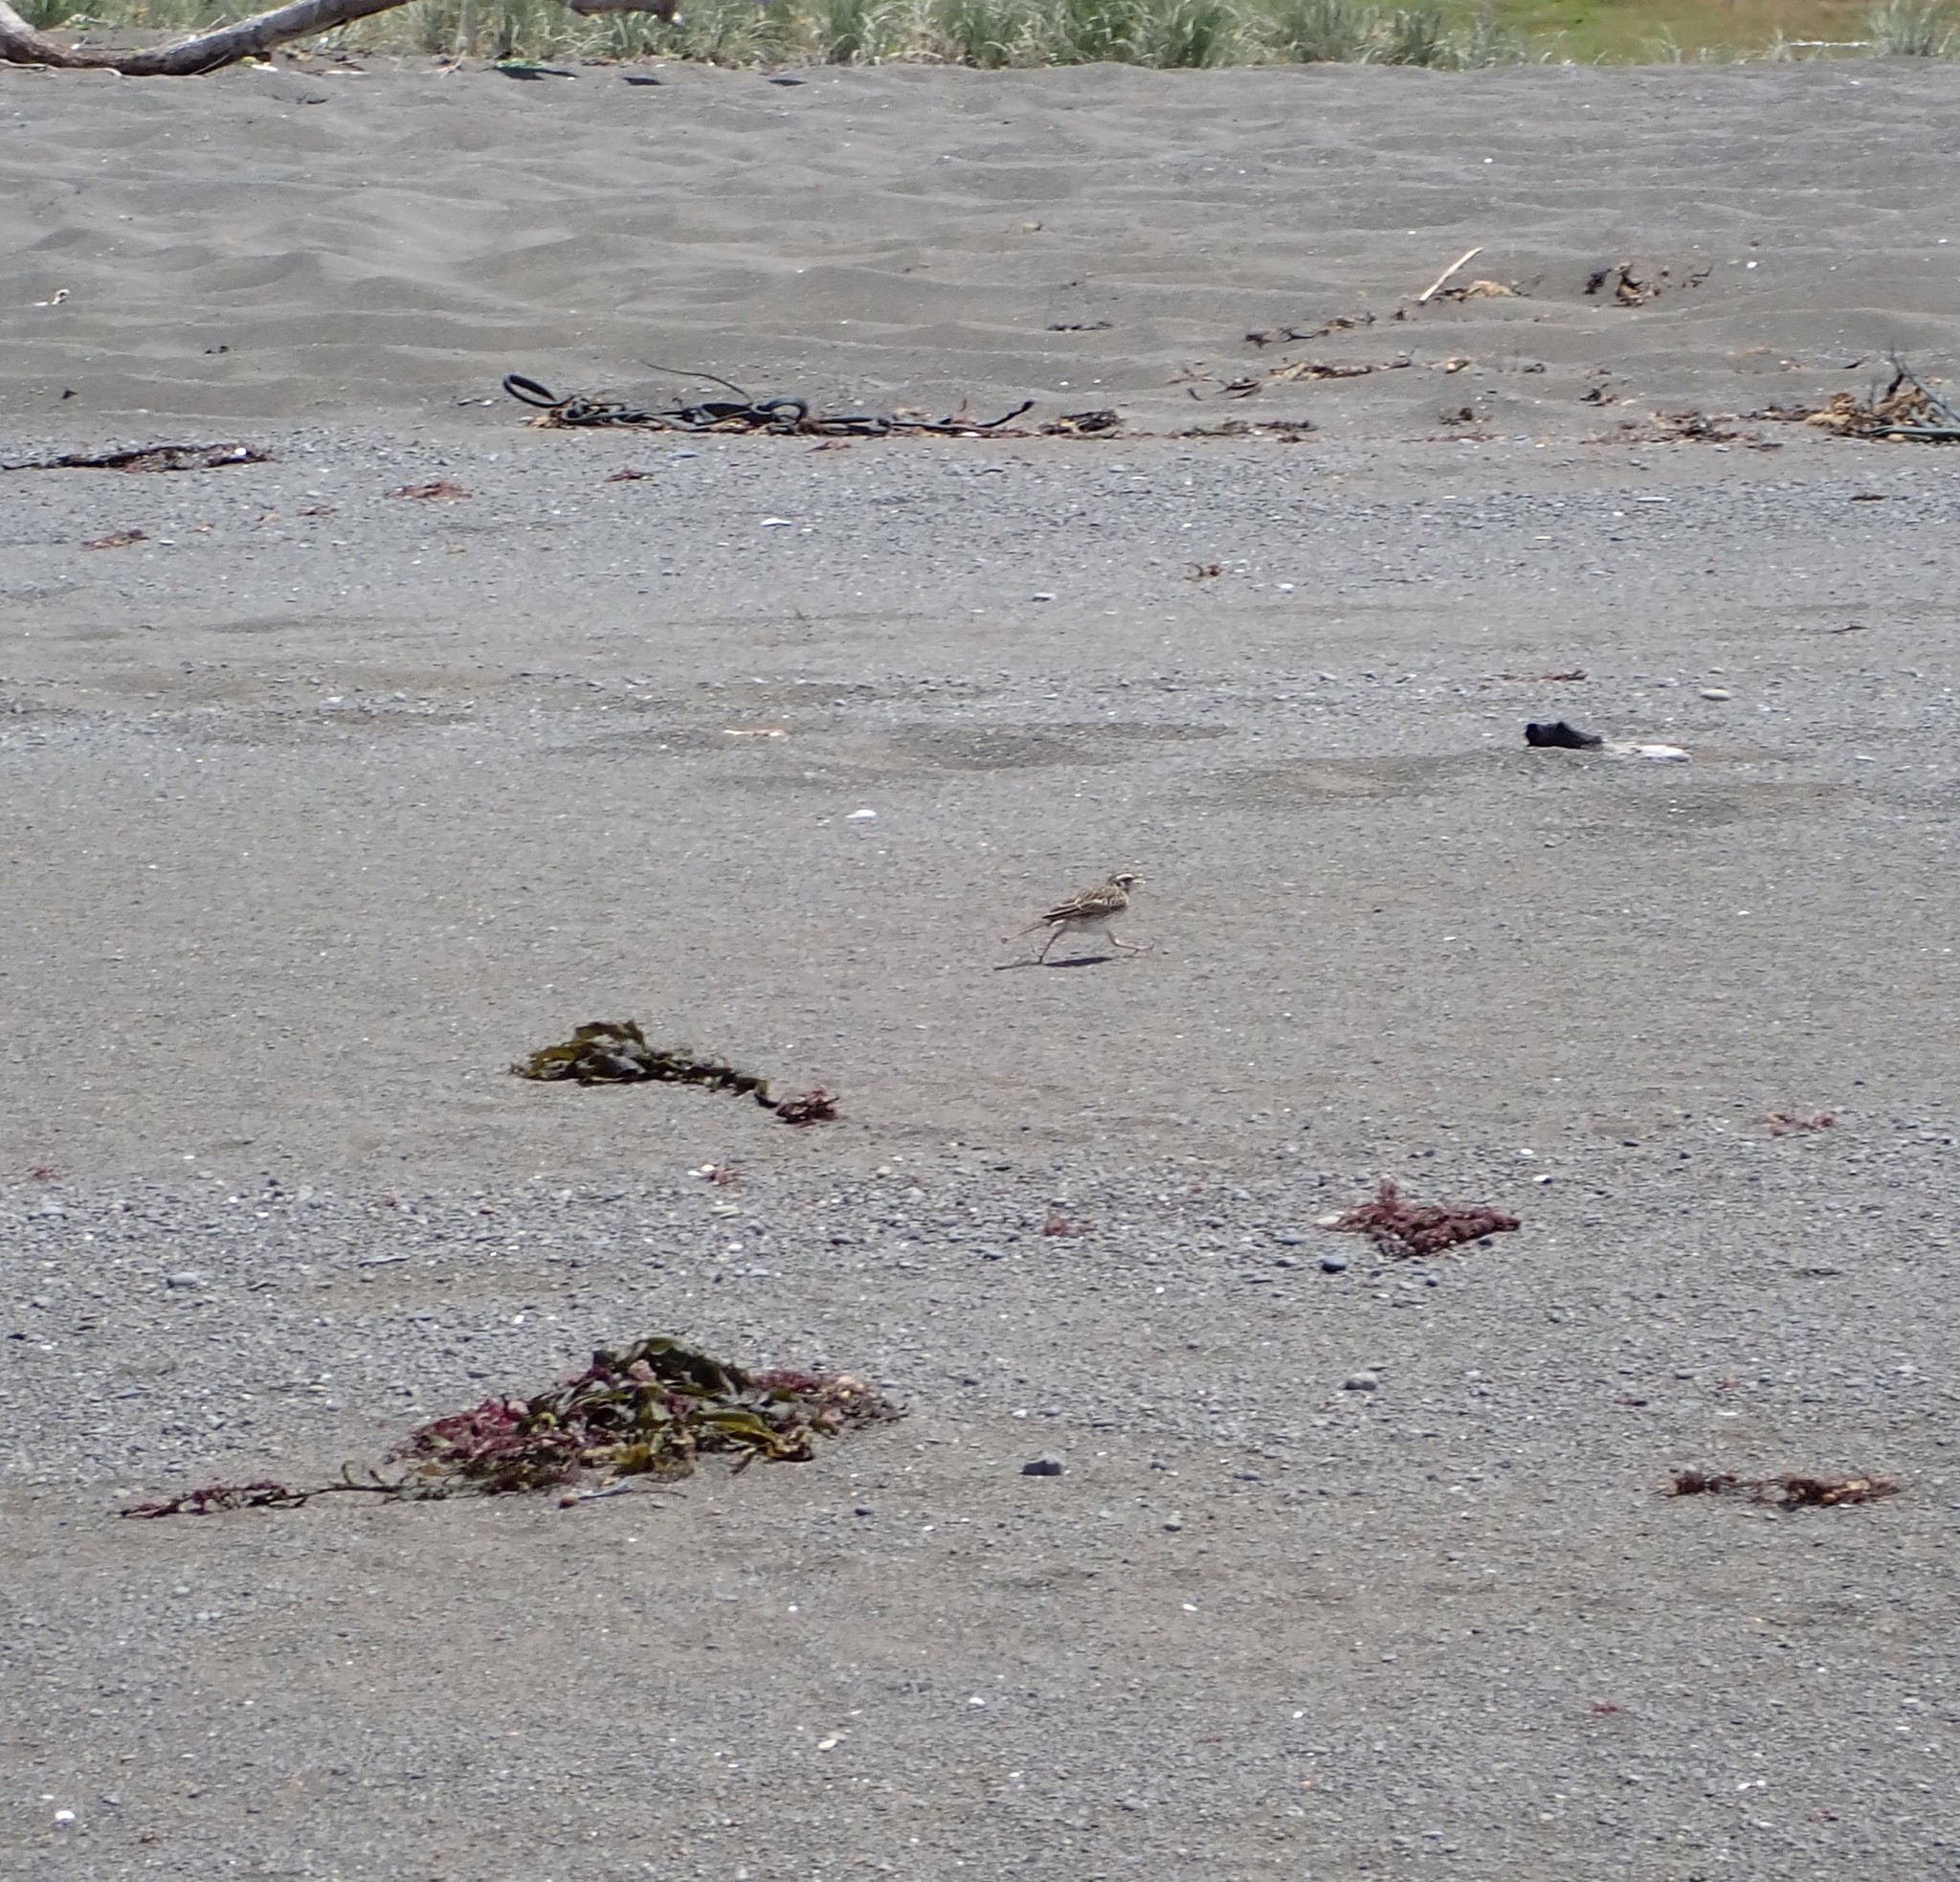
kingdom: Animalia
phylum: Chordata
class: Aves
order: Passeriformes
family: Motacillidae
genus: Anthus
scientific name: Anthus novaeseelandiae
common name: New zealand pipit
